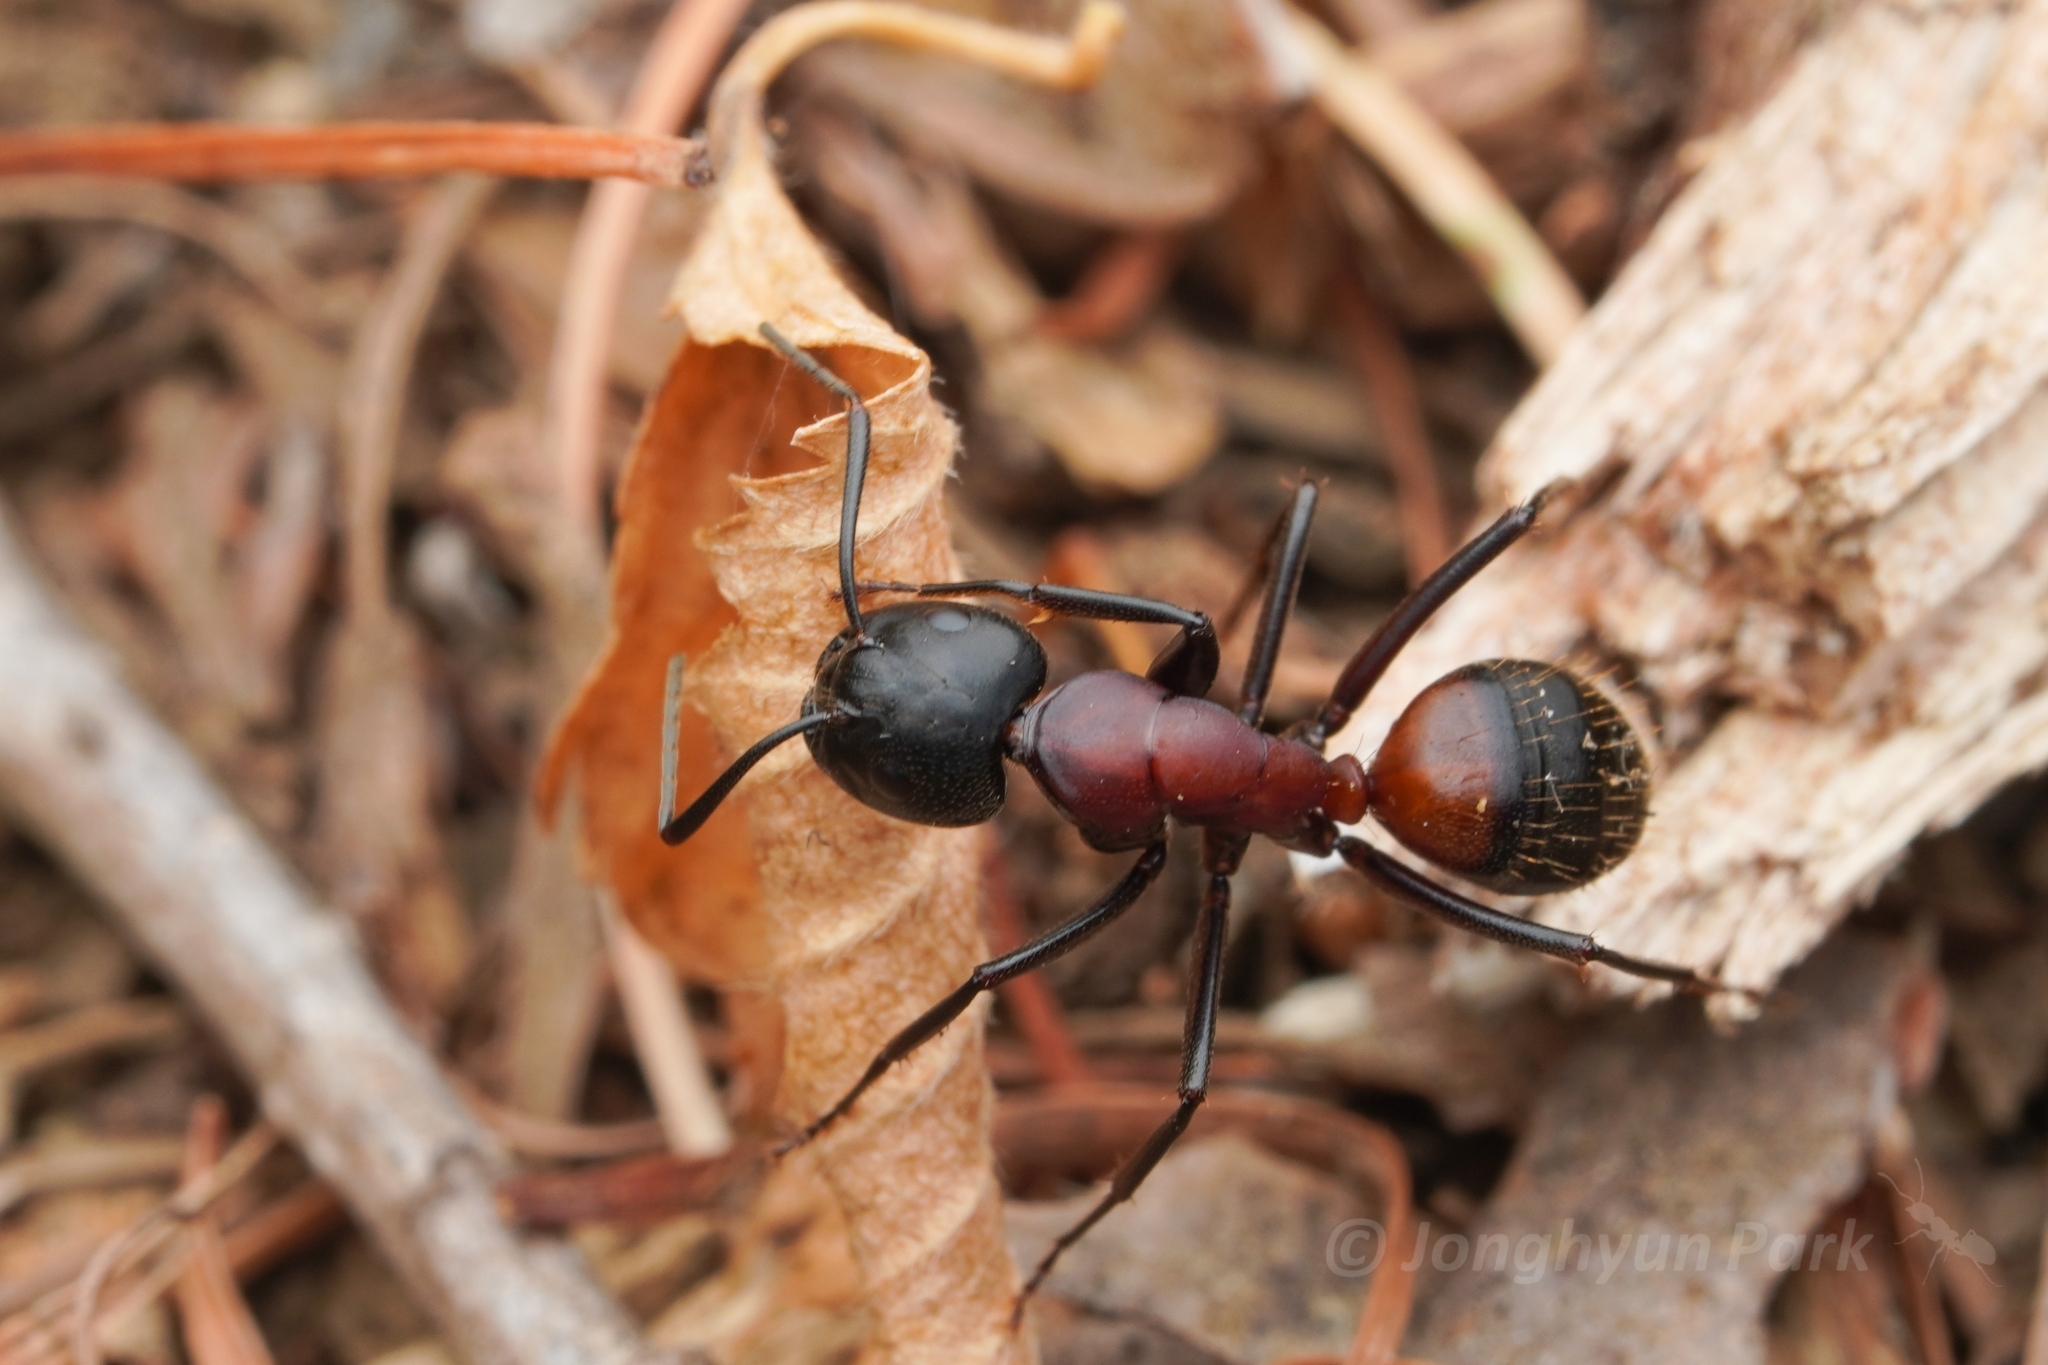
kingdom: Animalia
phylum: Arthropoda
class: Insecta
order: Hymenoptera
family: Formicidae
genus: Camponotus
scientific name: Camponotus obscuripes
